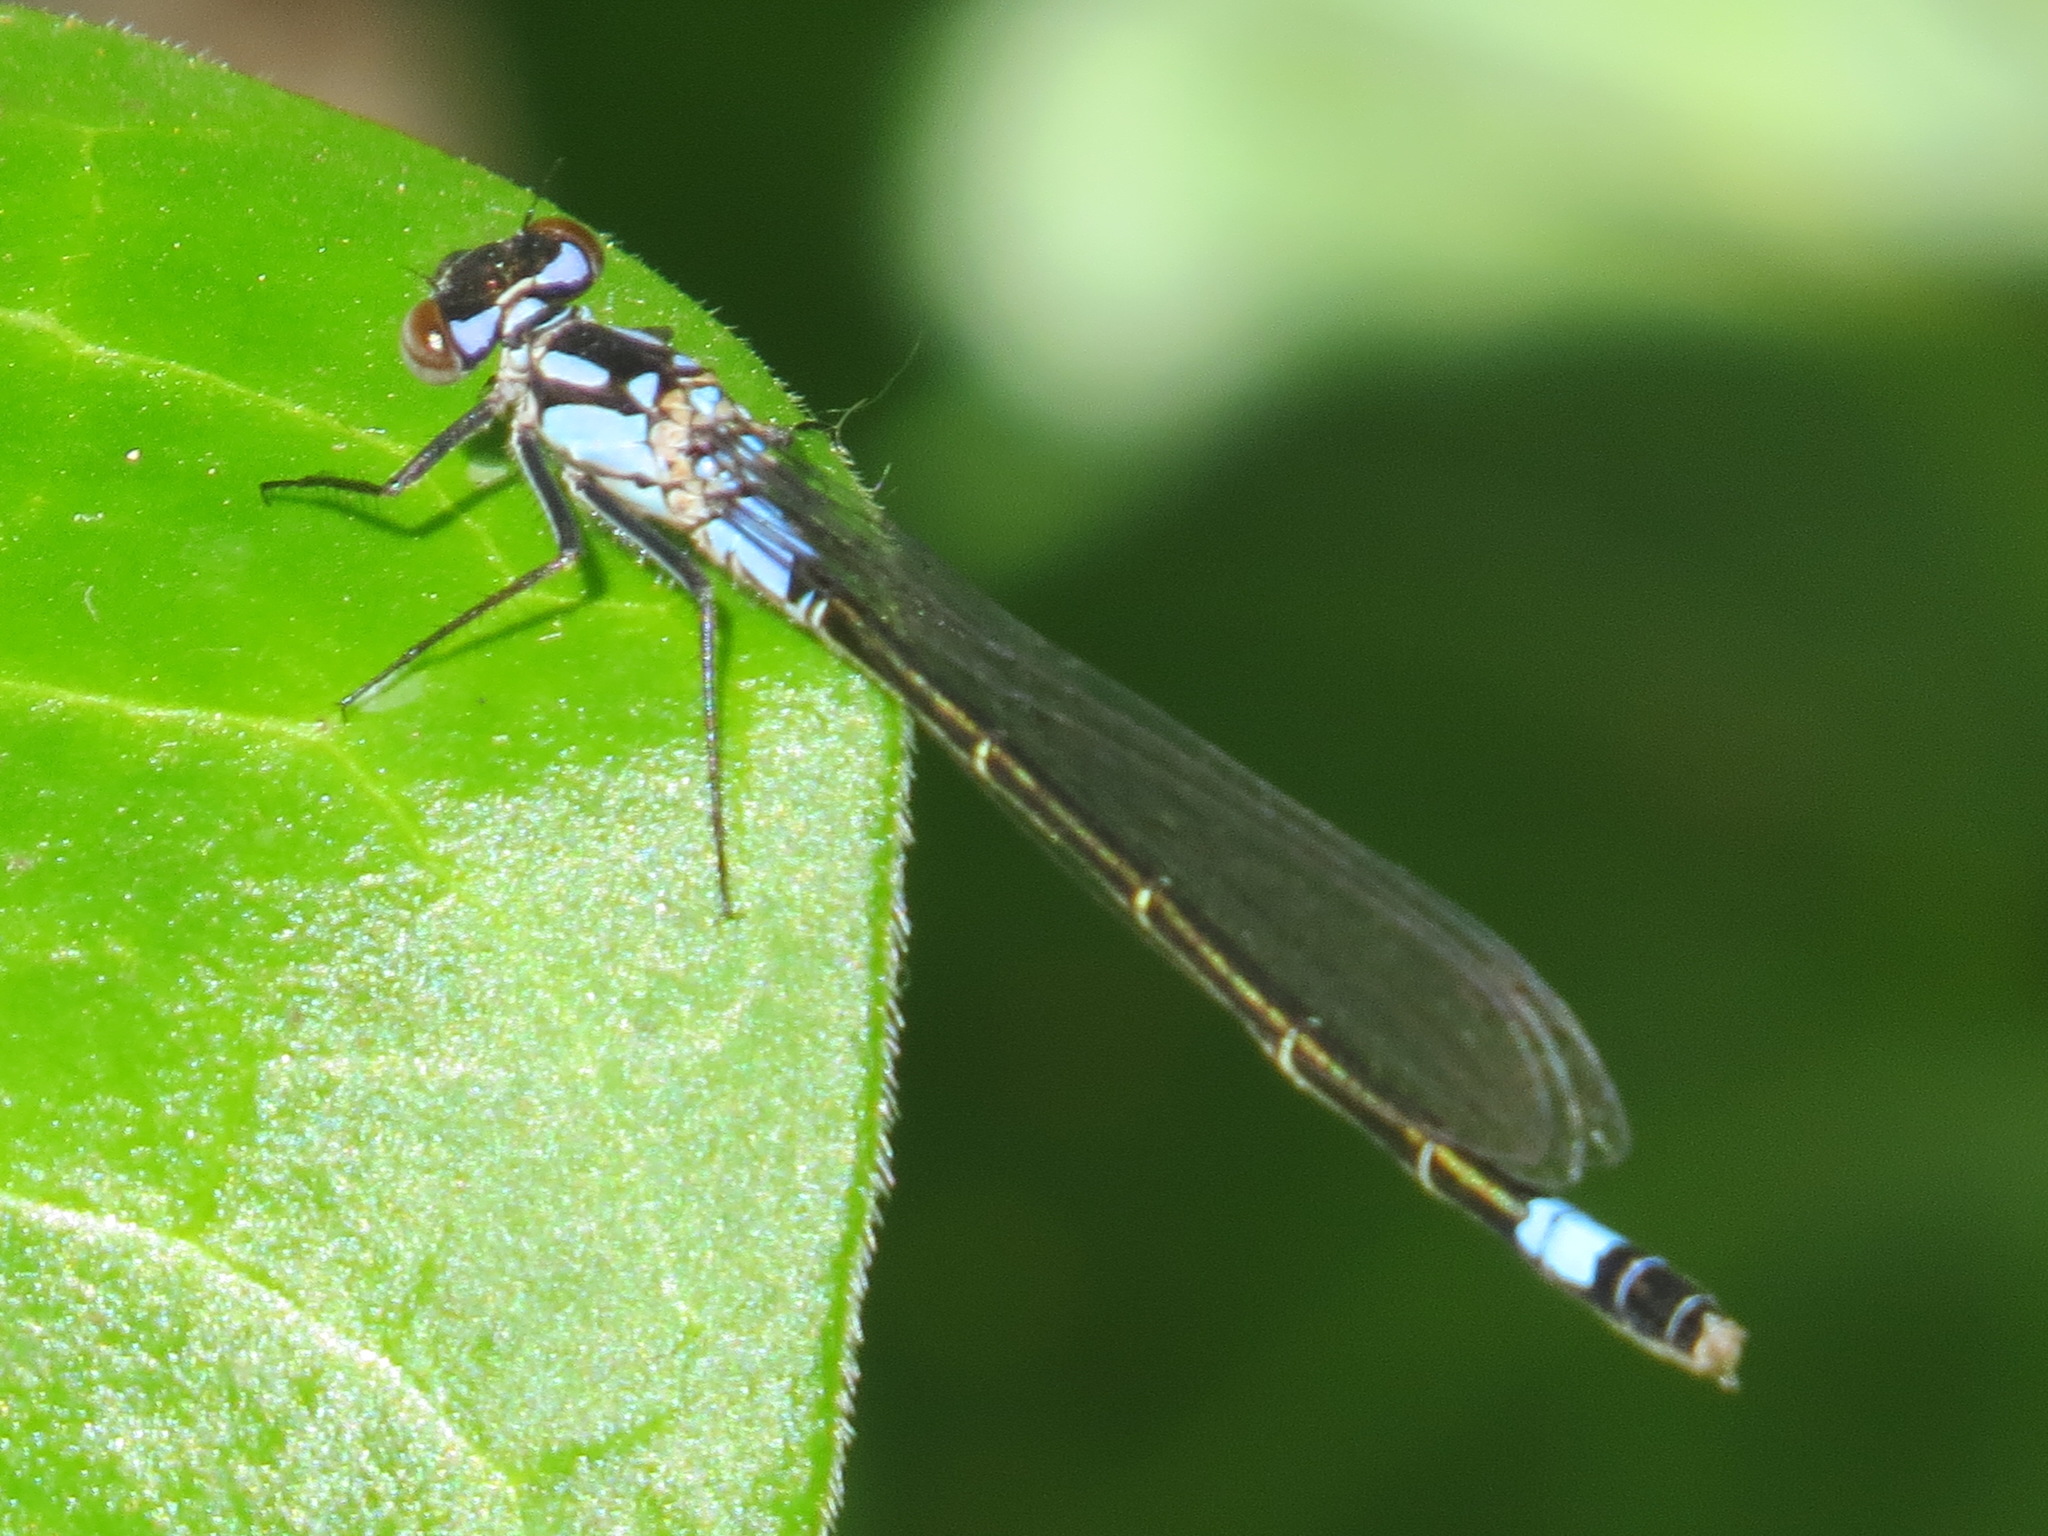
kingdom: Animalia
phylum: Arthropoda
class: Insecta
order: Odonata
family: Coenagrionidae
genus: Zoniagrion
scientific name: Zoniagrion exclamationis
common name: Exclamation damsel
